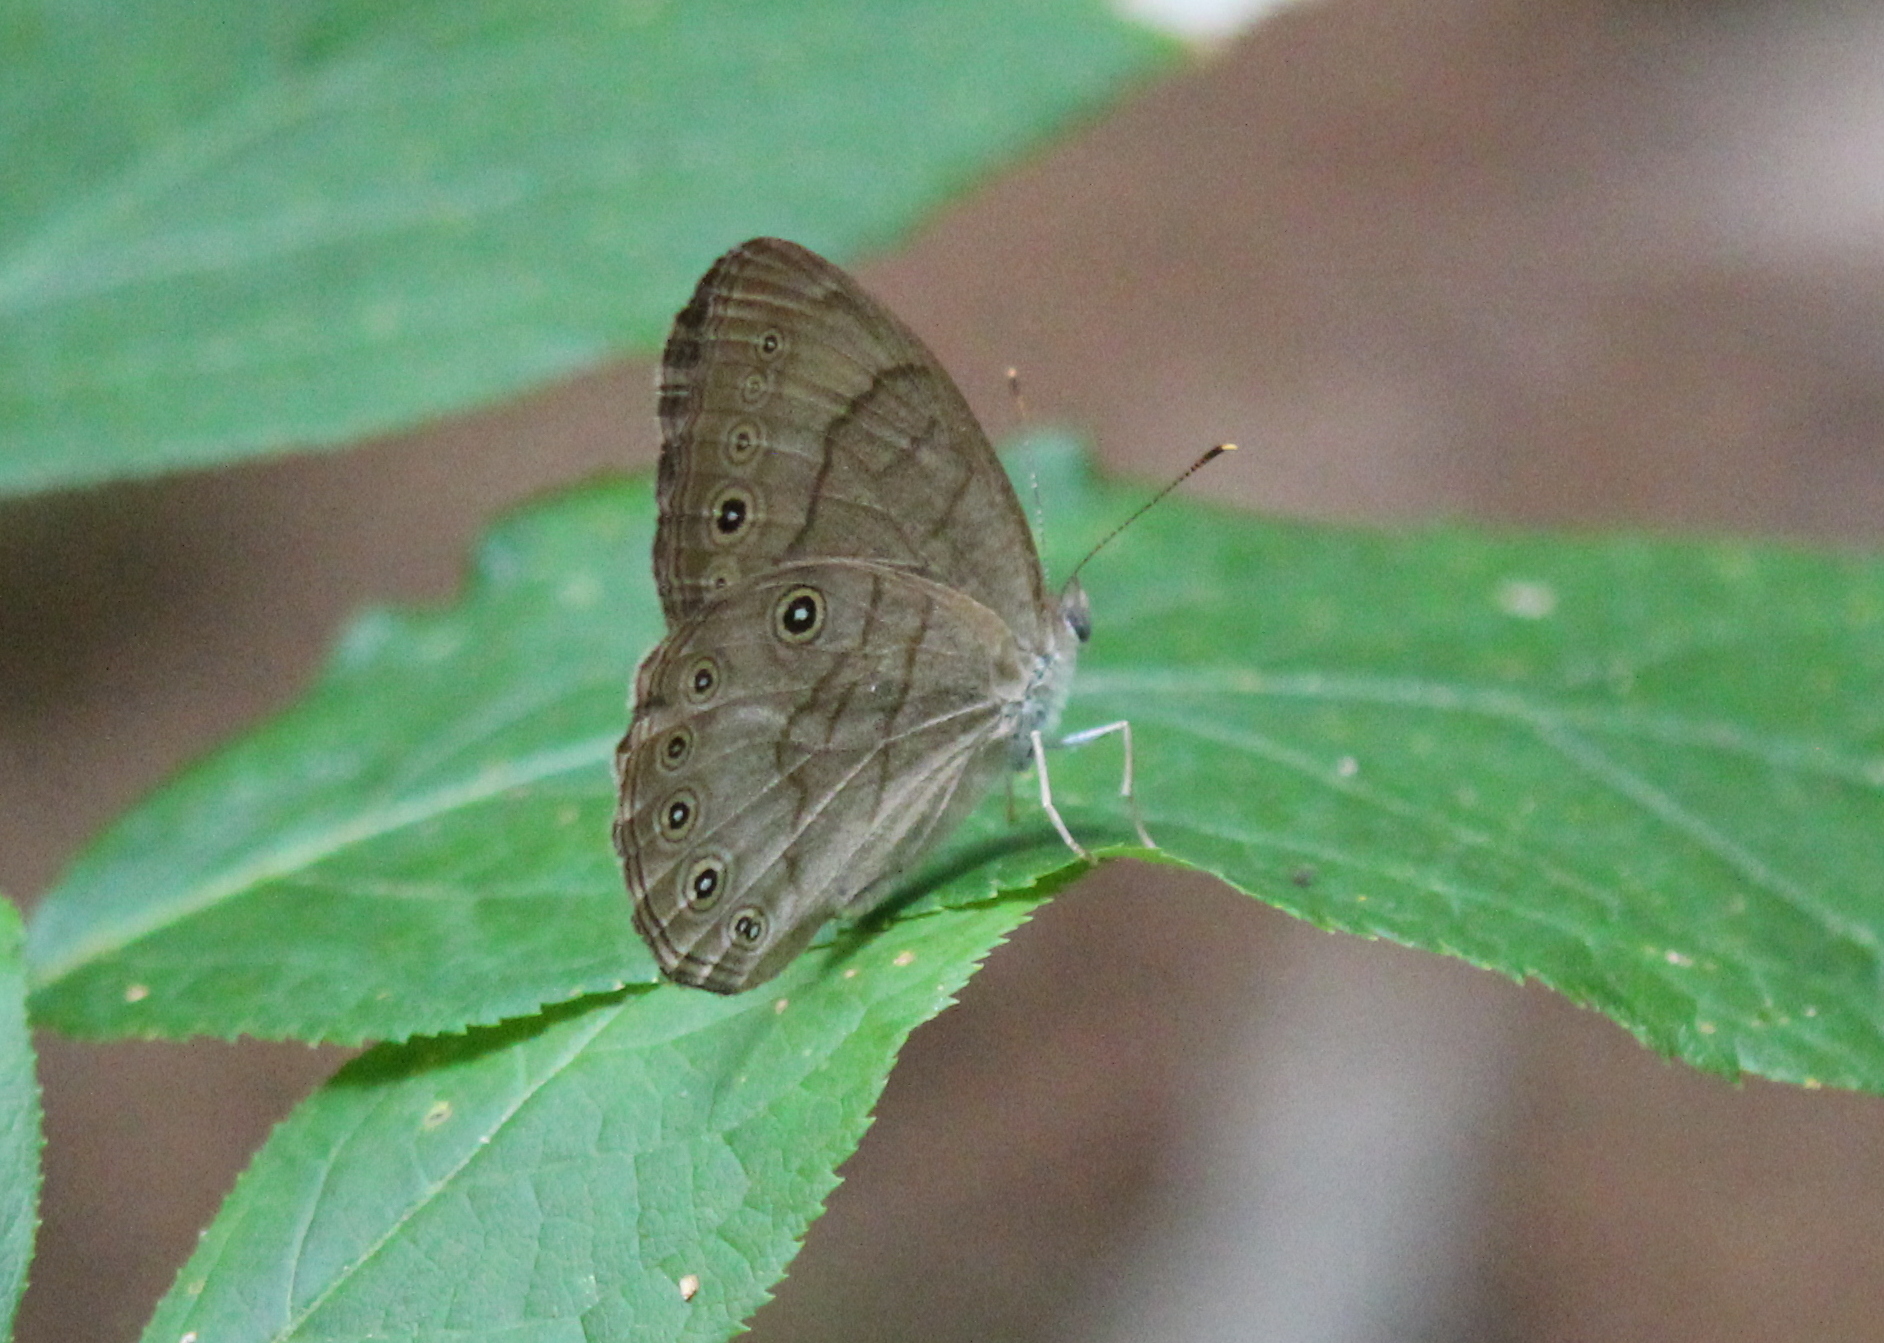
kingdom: Animalia
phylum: Arthropoda
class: Insecta
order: Lepidoptera
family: Nymphalidae
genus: Lethe
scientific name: Lethe eurydice
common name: Eyed brown
